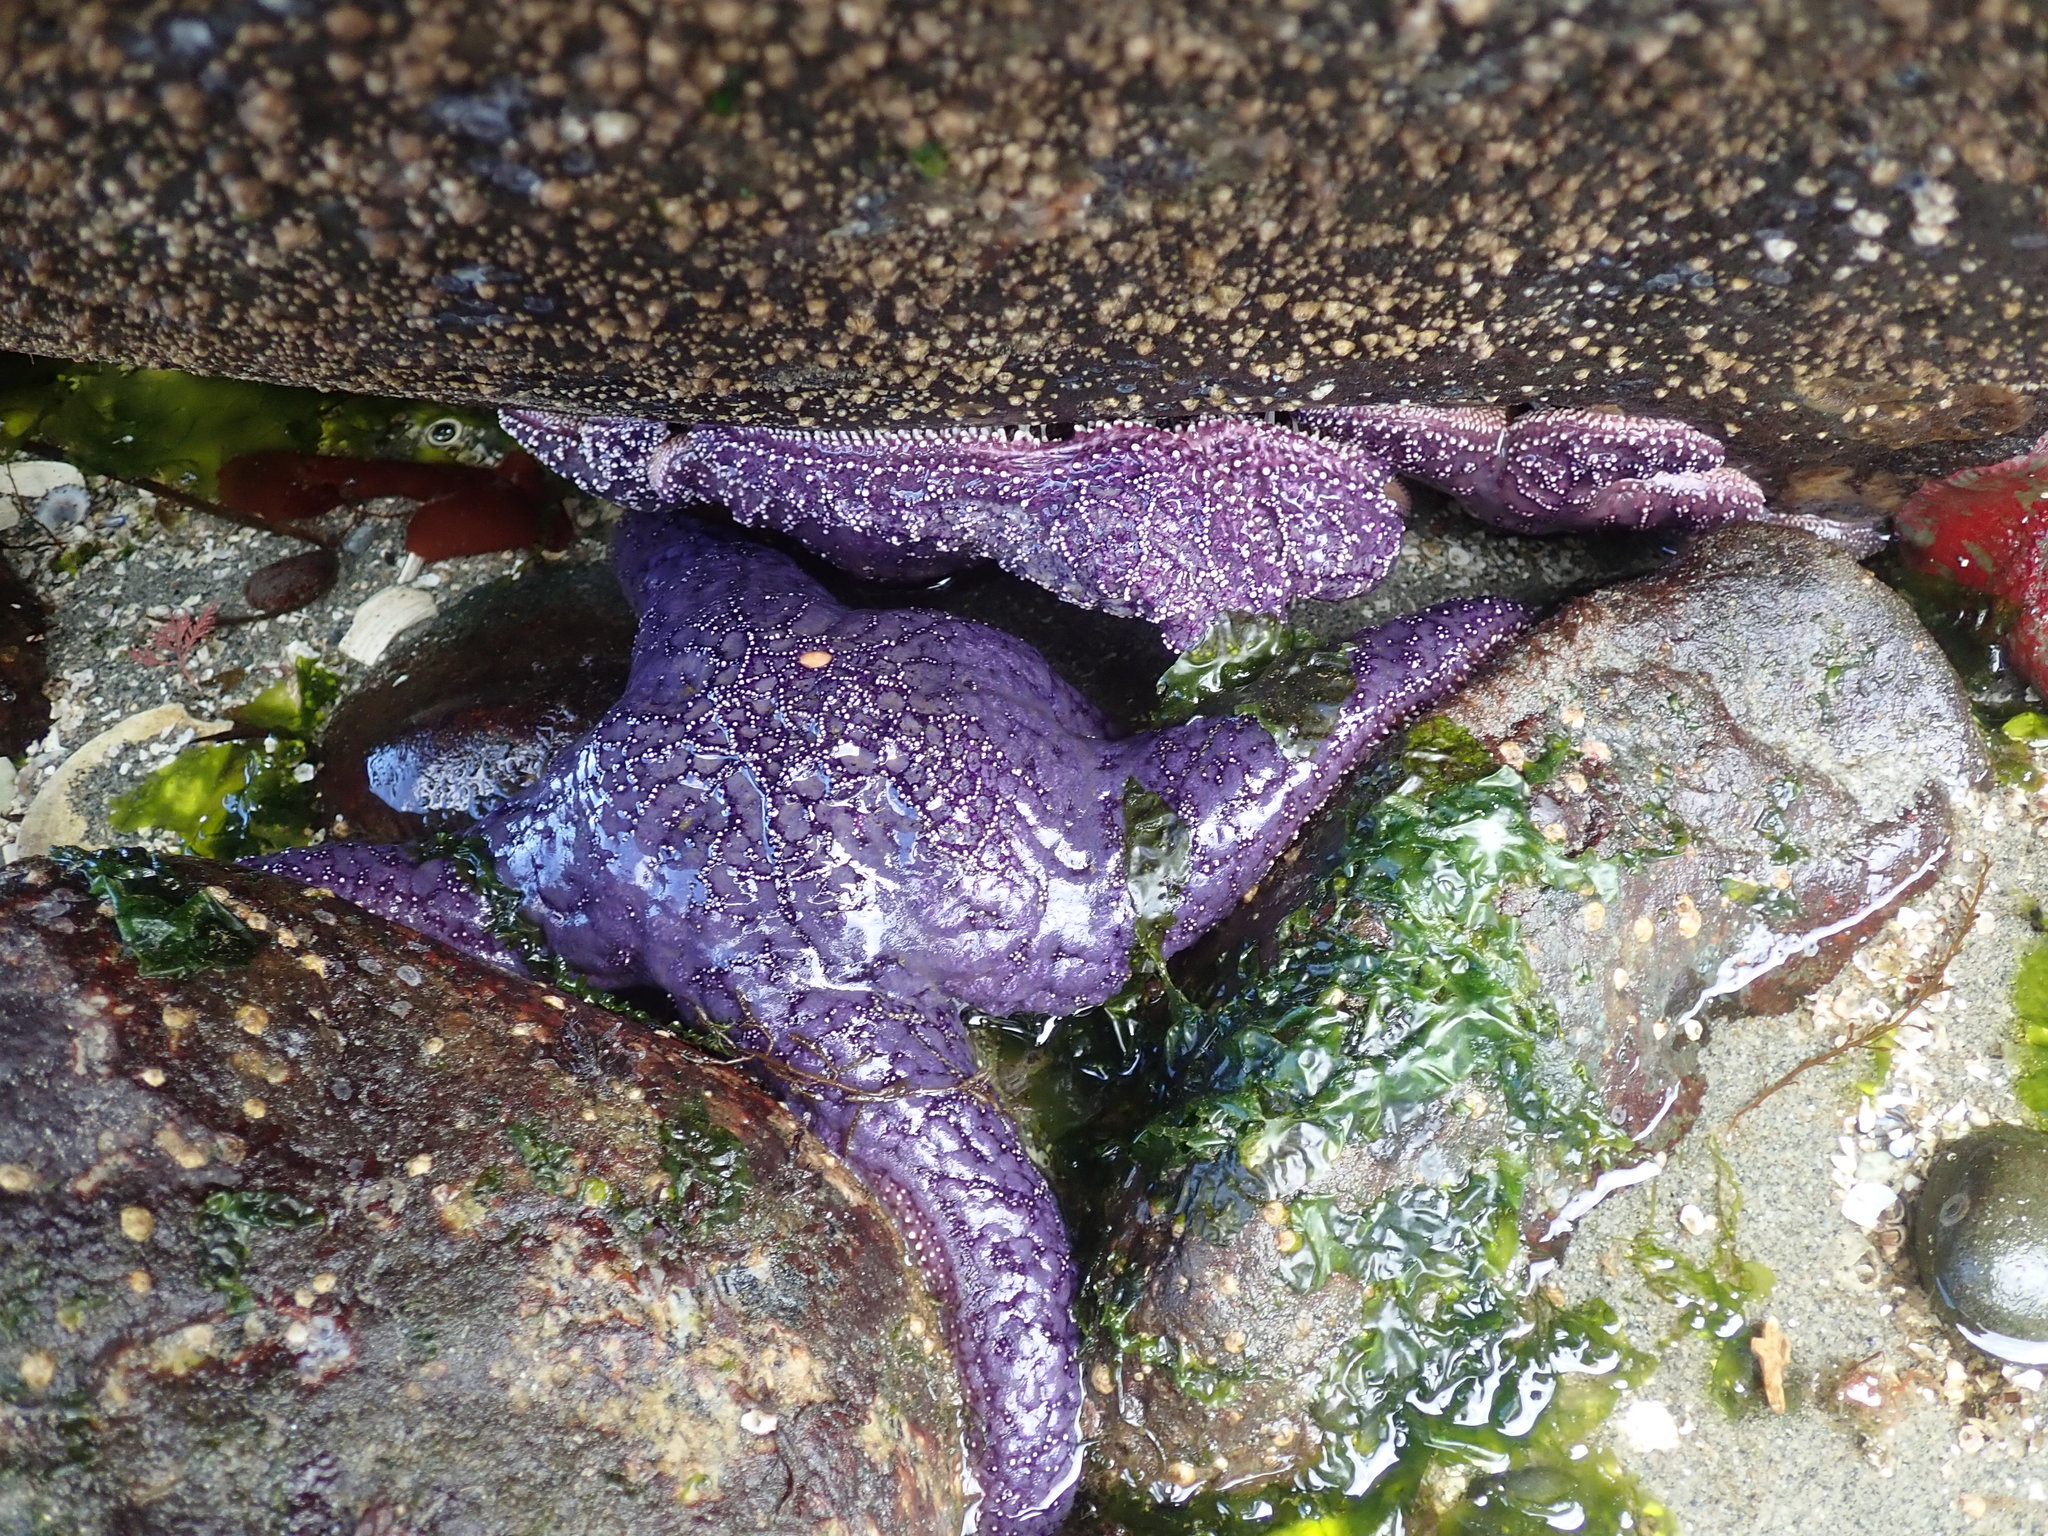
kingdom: Animalia
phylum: Echinodermata
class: Asteroidea
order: Forcipulatida
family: Asteriidae
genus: Pisaster
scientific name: Pisaster ochraceus
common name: Ochre stars
